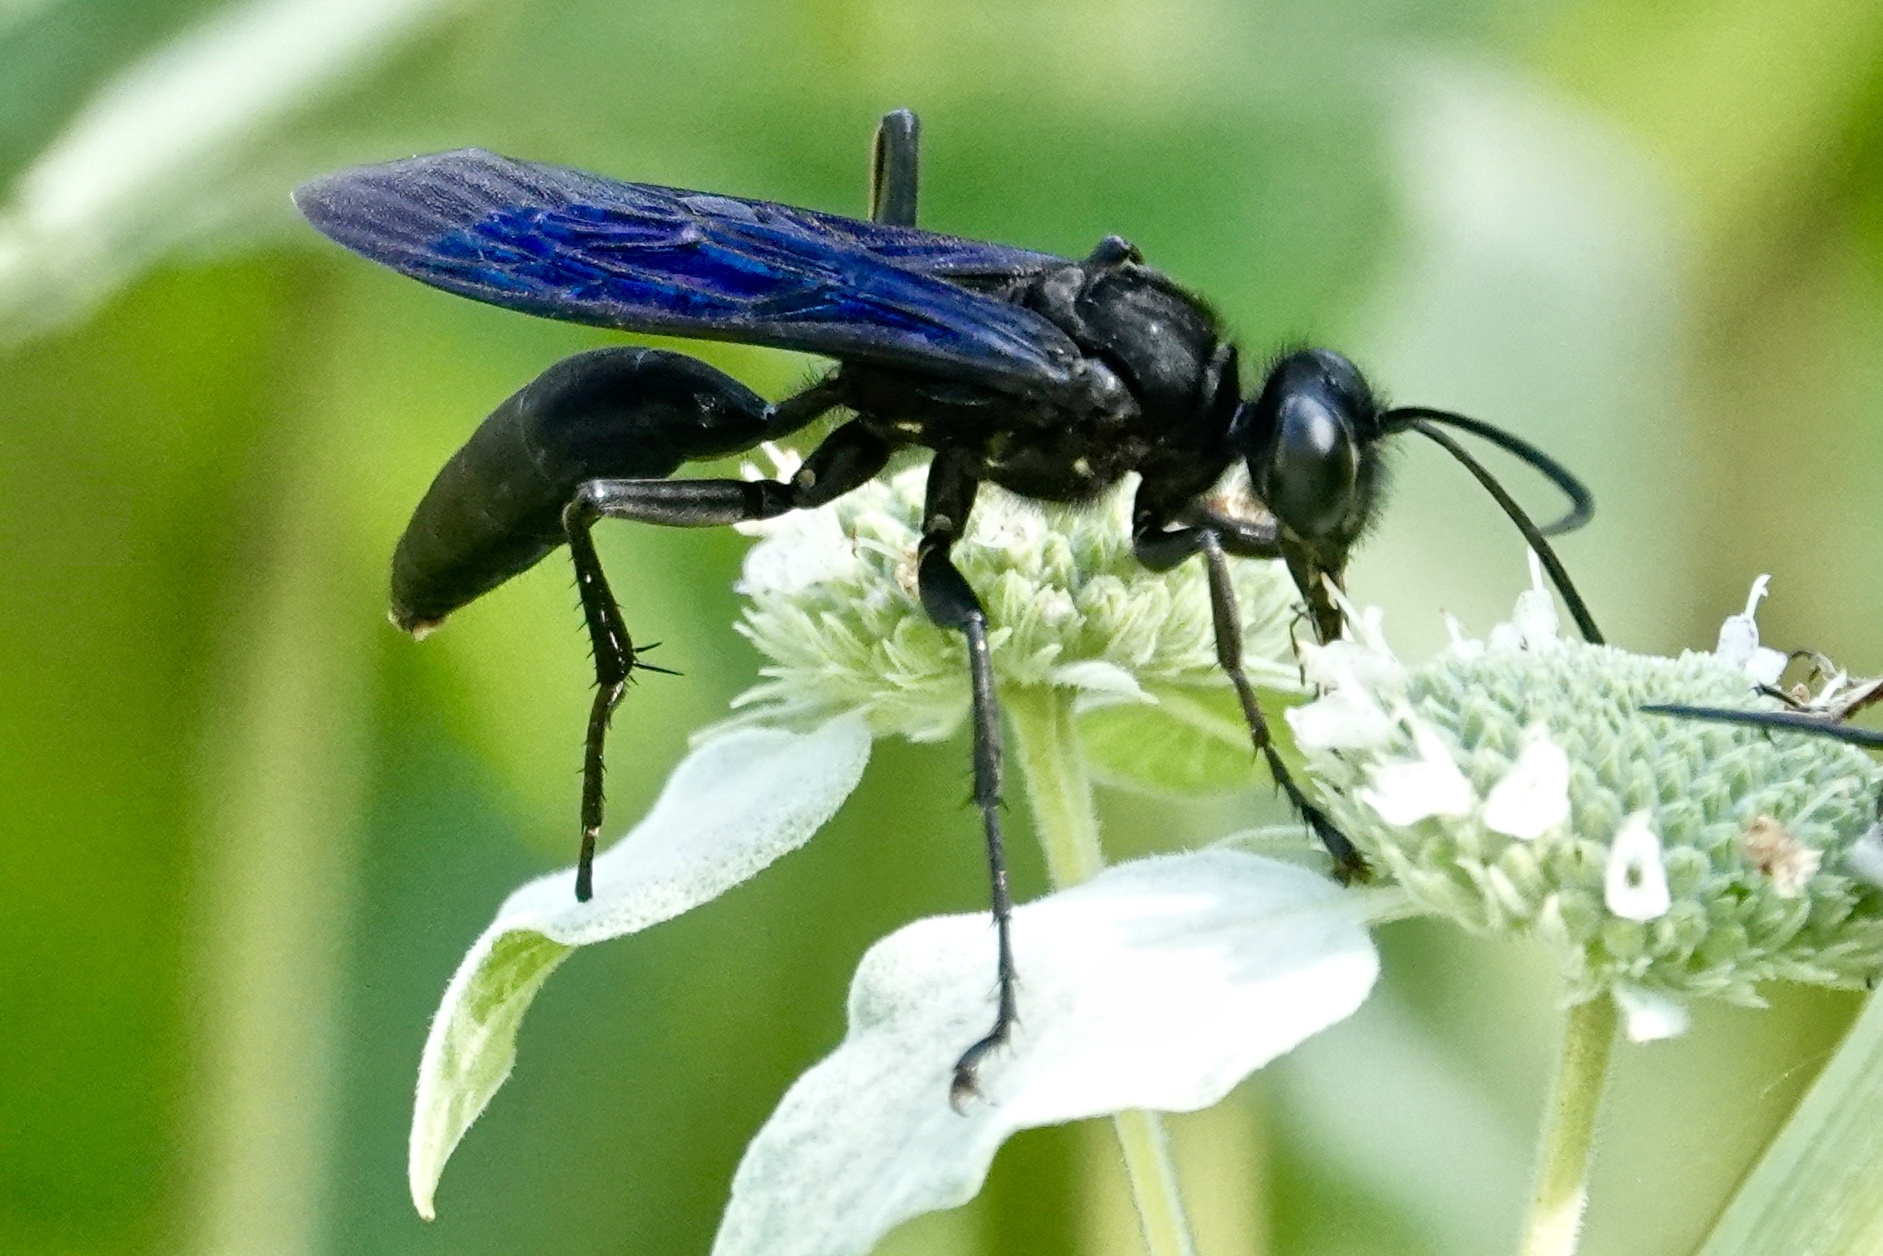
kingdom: Animalia
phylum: Arthropoda
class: Insecta
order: Hymenoptera
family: Sphecidae
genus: Sphex
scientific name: Sphex pensylvanicus
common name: Great black digger wasp
